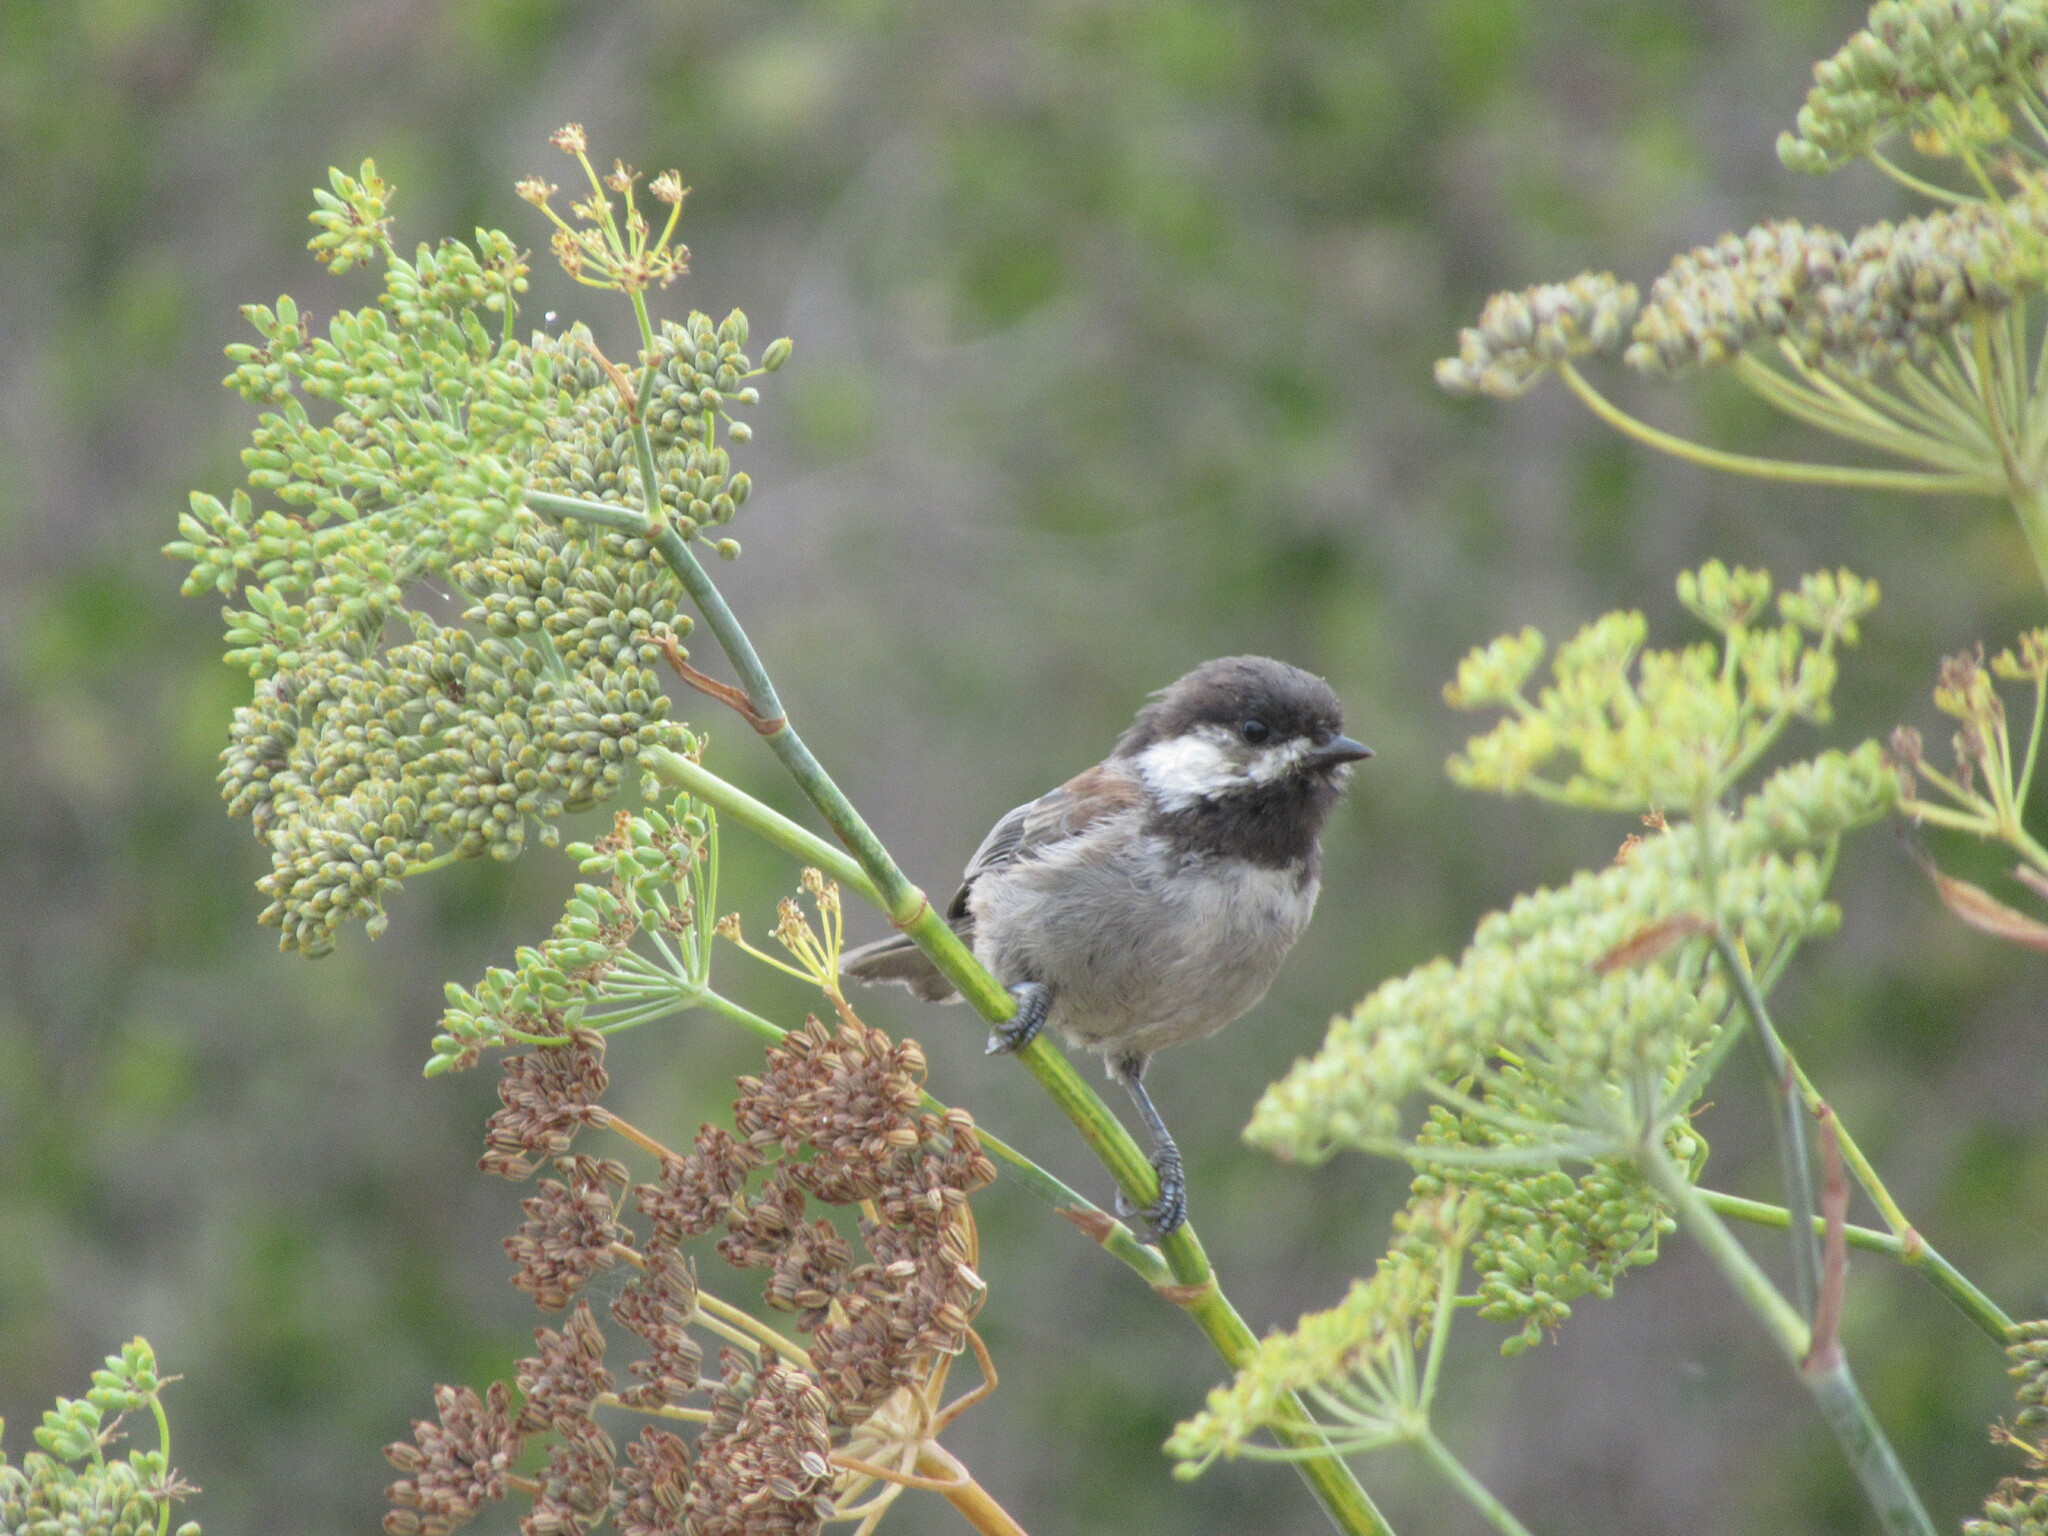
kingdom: Animalia
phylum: Chordata
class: Aves
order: Passeriformes
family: Paridae
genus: Poecile
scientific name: Poecile rufescens
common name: Chestnut-backed chickadee
